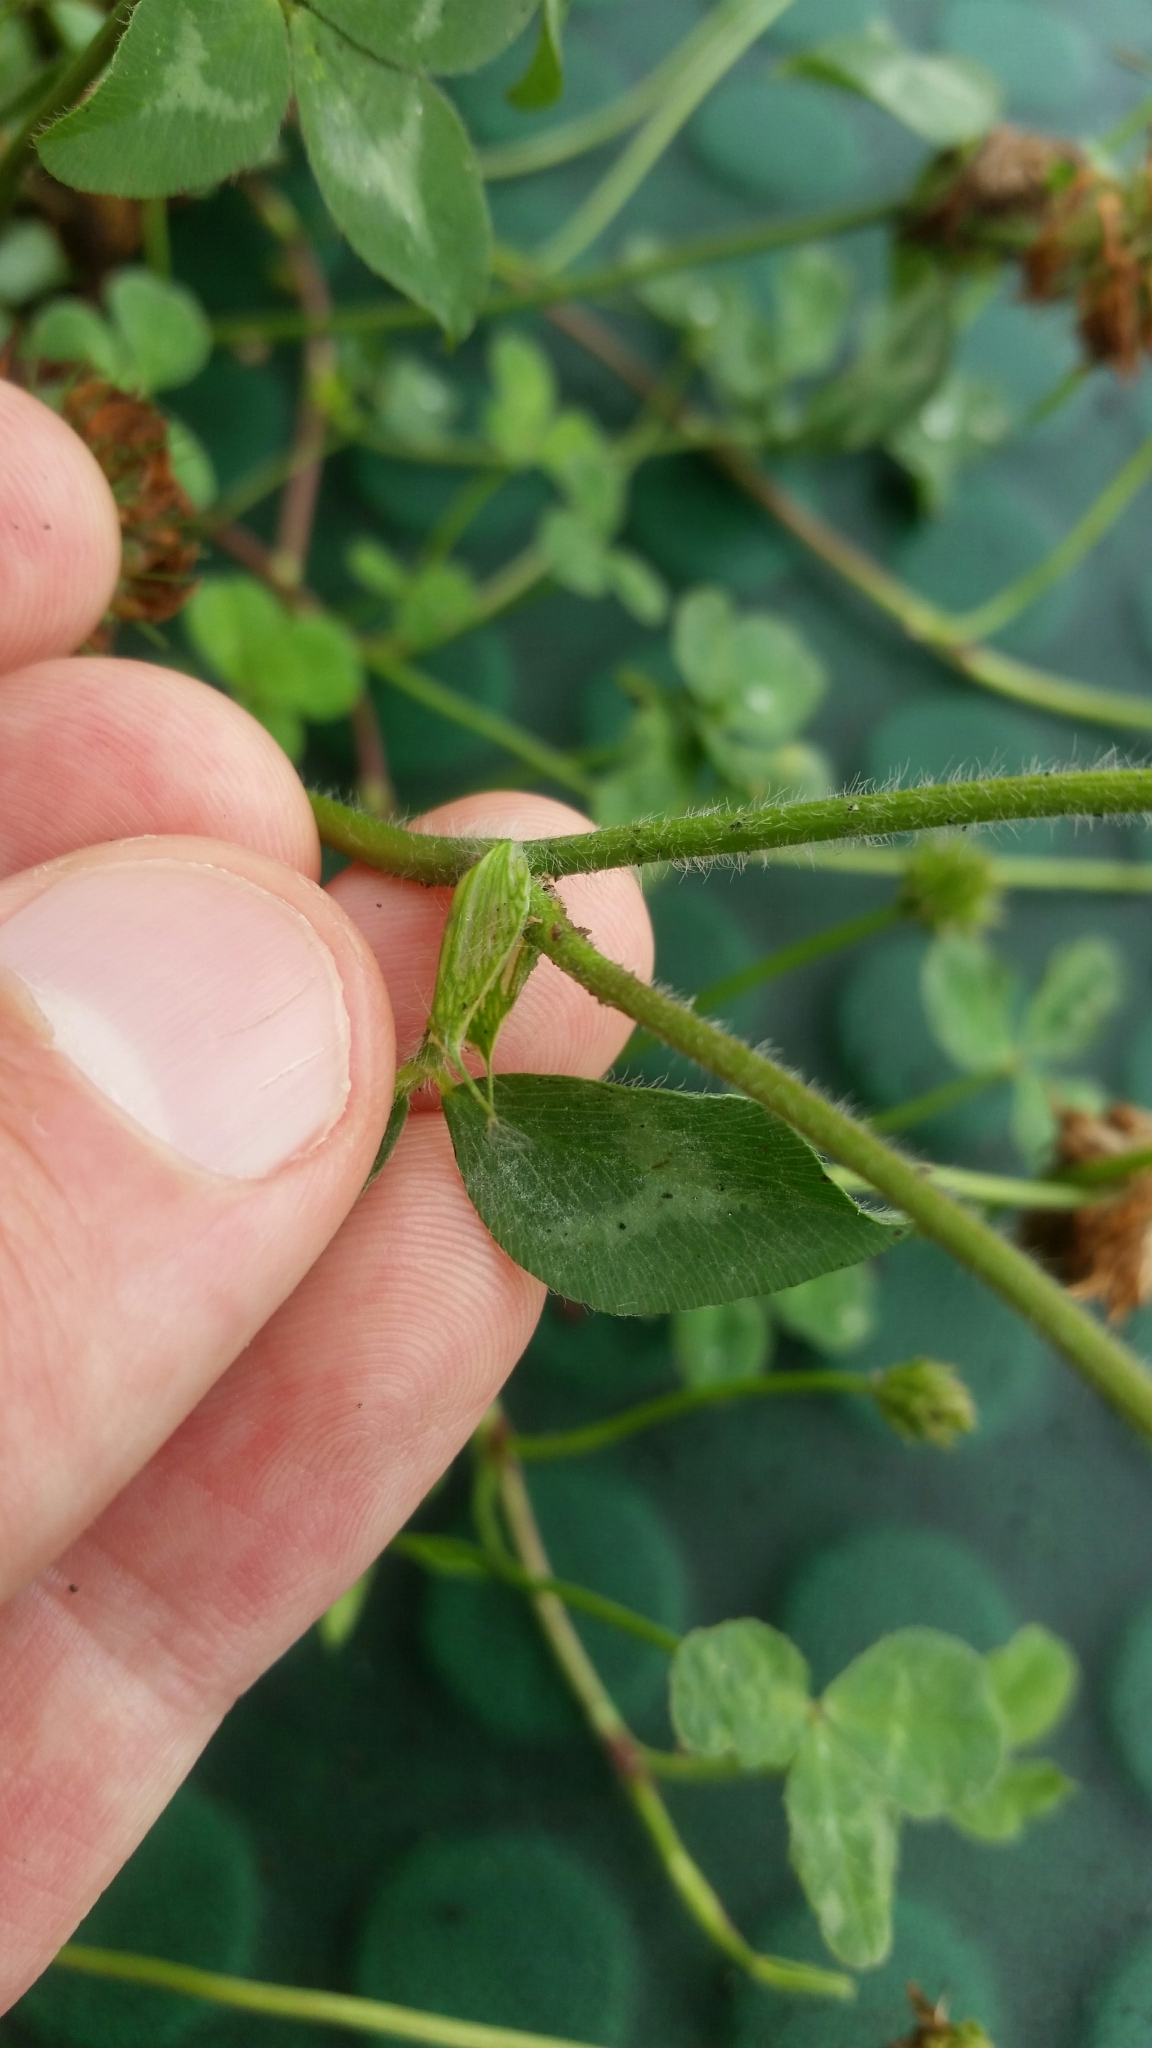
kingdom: Plantae
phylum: Tracheophyta
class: Magnoliopsida
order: Fabales
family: Fabaceae
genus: Trifolium
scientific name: Trifolium pratense
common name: Red clover
